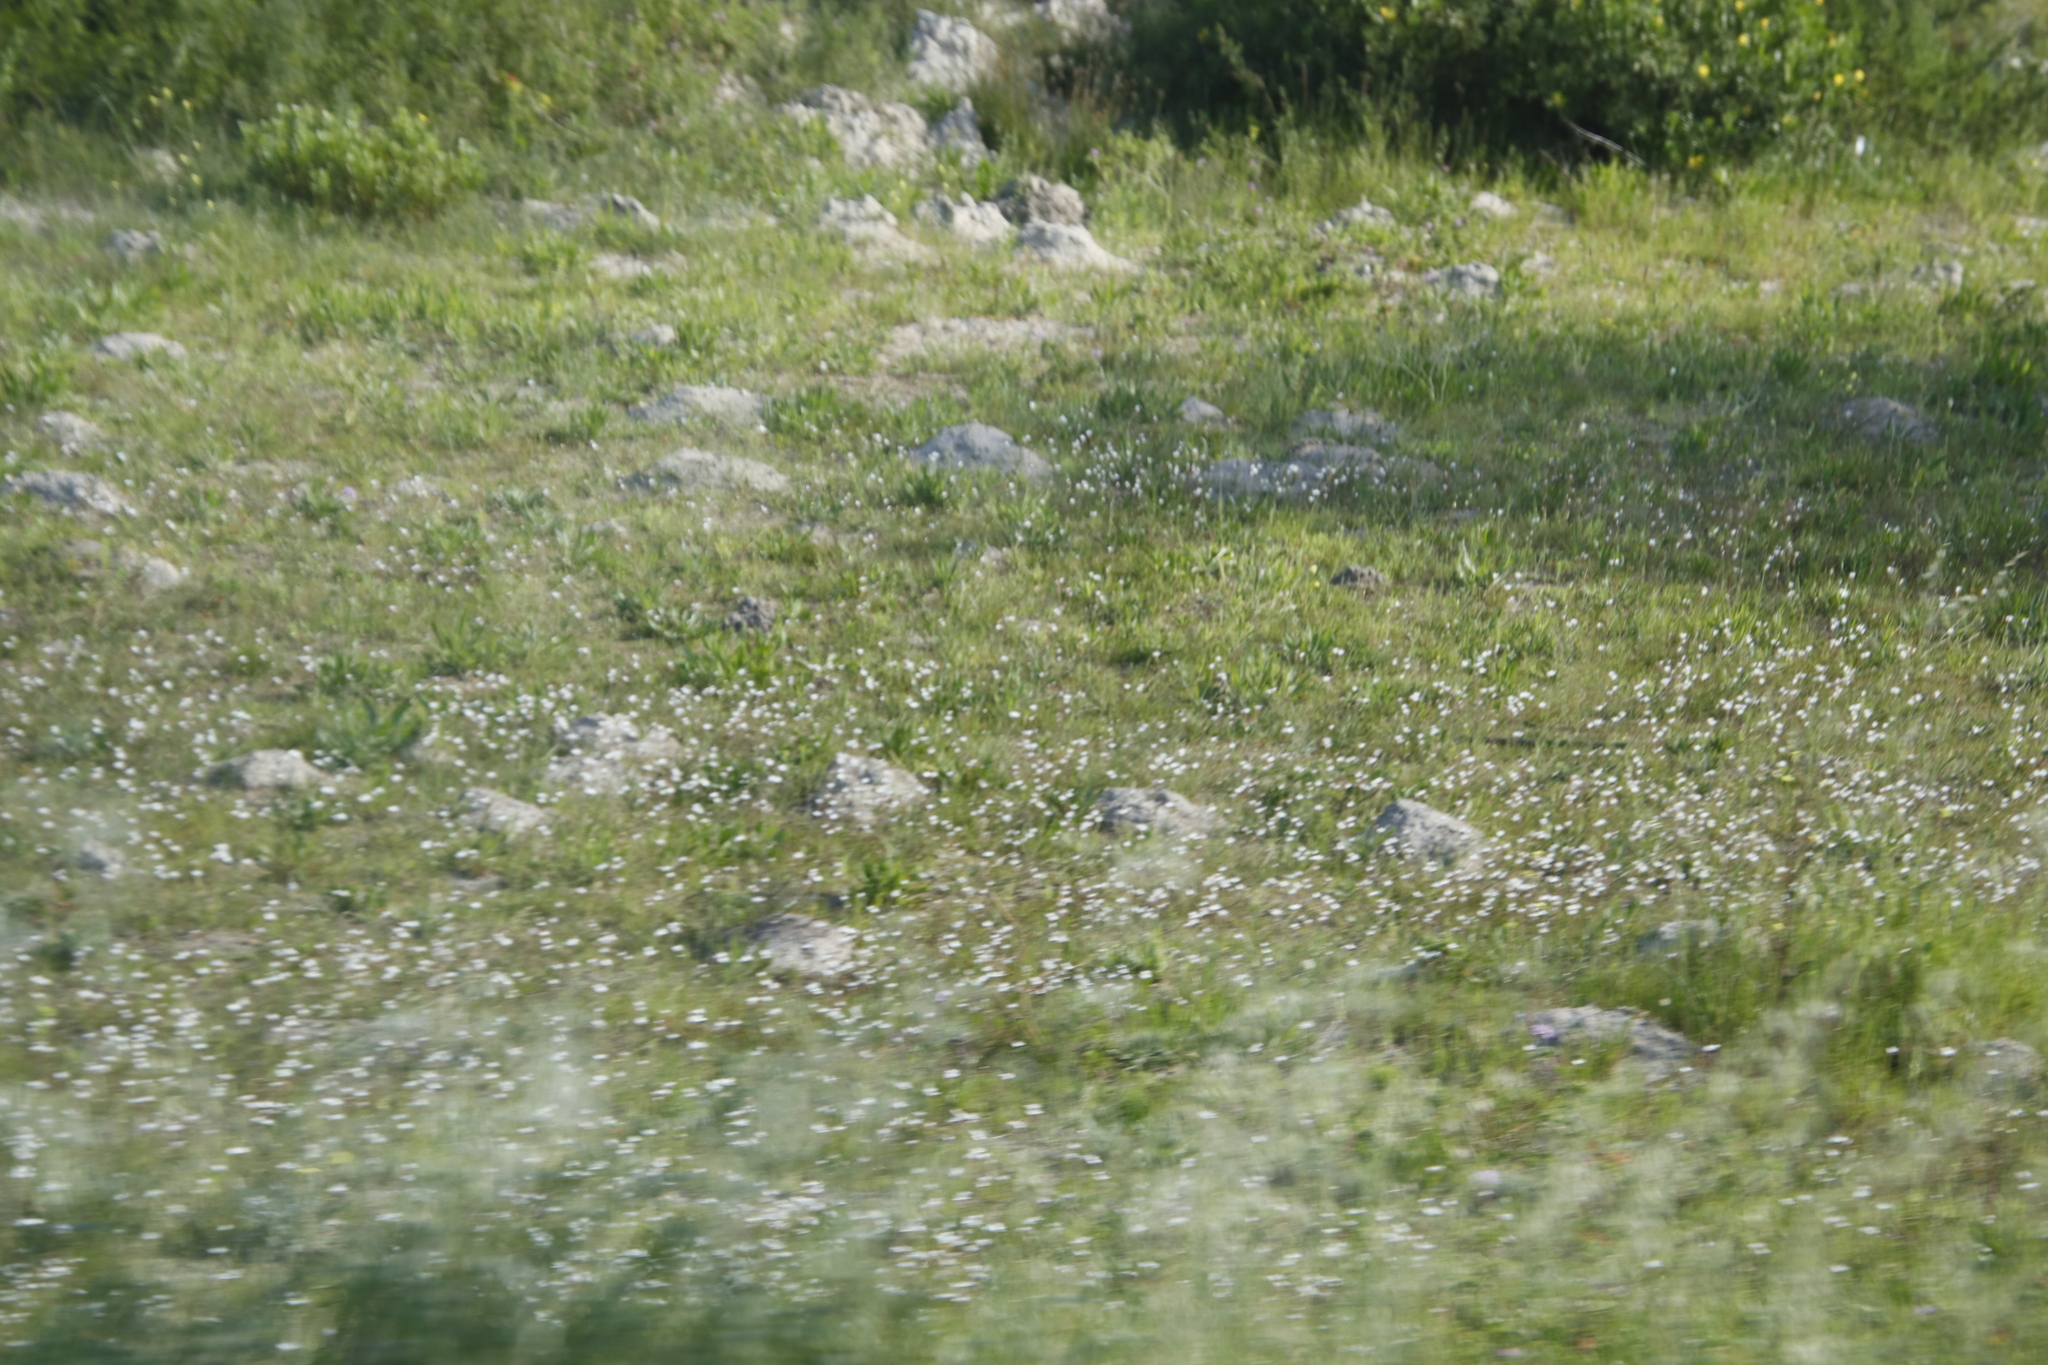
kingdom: Plantae
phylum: Tracheophyta
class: Liliopsida
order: Asparagales
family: Iridaceae
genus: Sparaxis
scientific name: Sparaxis bulbifera
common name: Harlequin-flower
